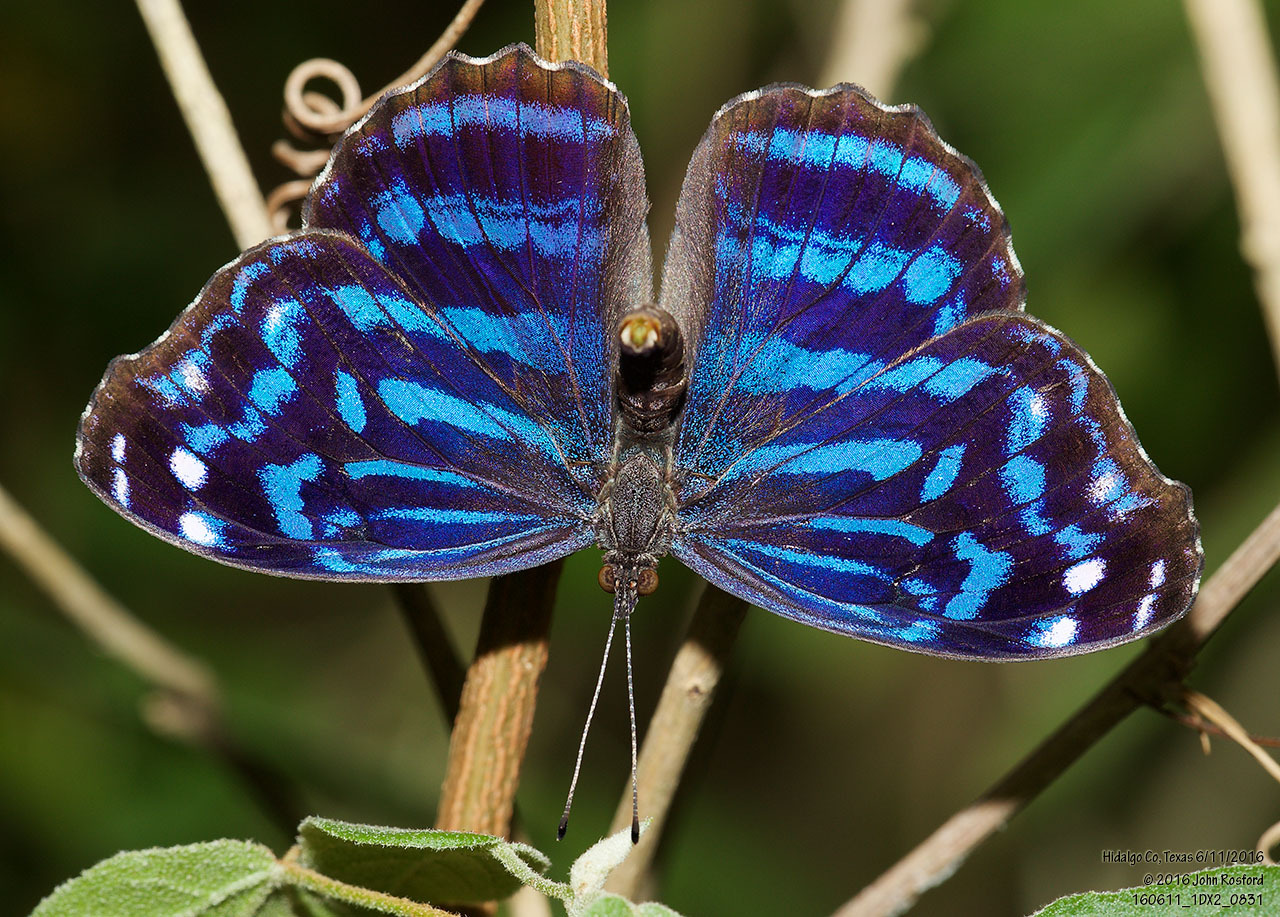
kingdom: Animalia
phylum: Arthropoda
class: Insecta
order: Lepidoptera
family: Nymphalidae
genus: Myscelia
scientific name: Myscelia ethusa
